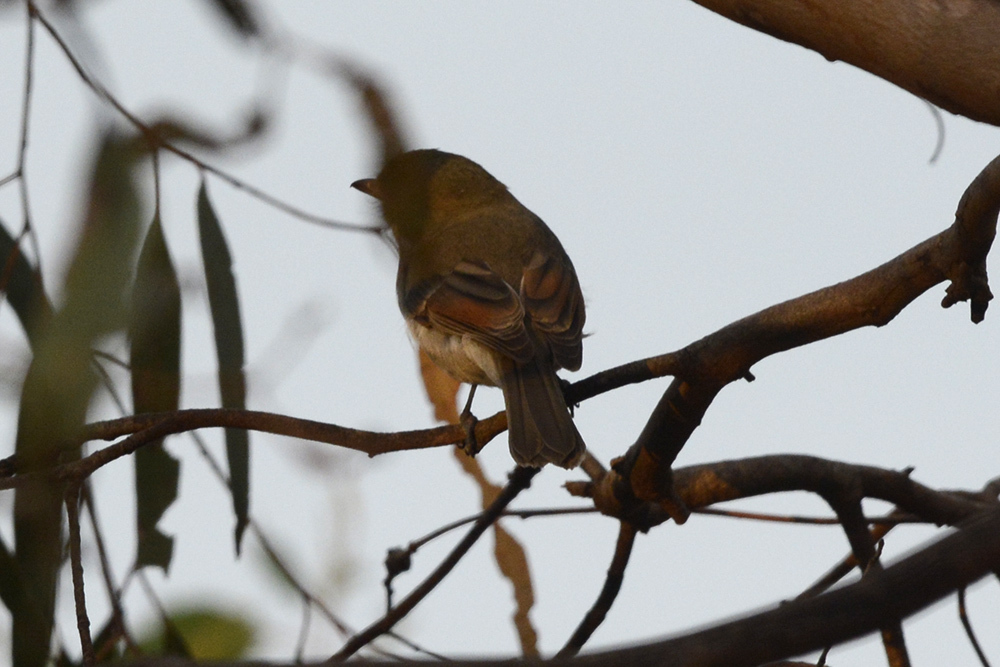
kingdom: Animalia
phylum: Chordata
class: Aves
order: Passeriformes
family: Pachycephalidae
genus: Pachycephala
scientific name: Pachycephala pectoralis
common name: Australian golden whistler
